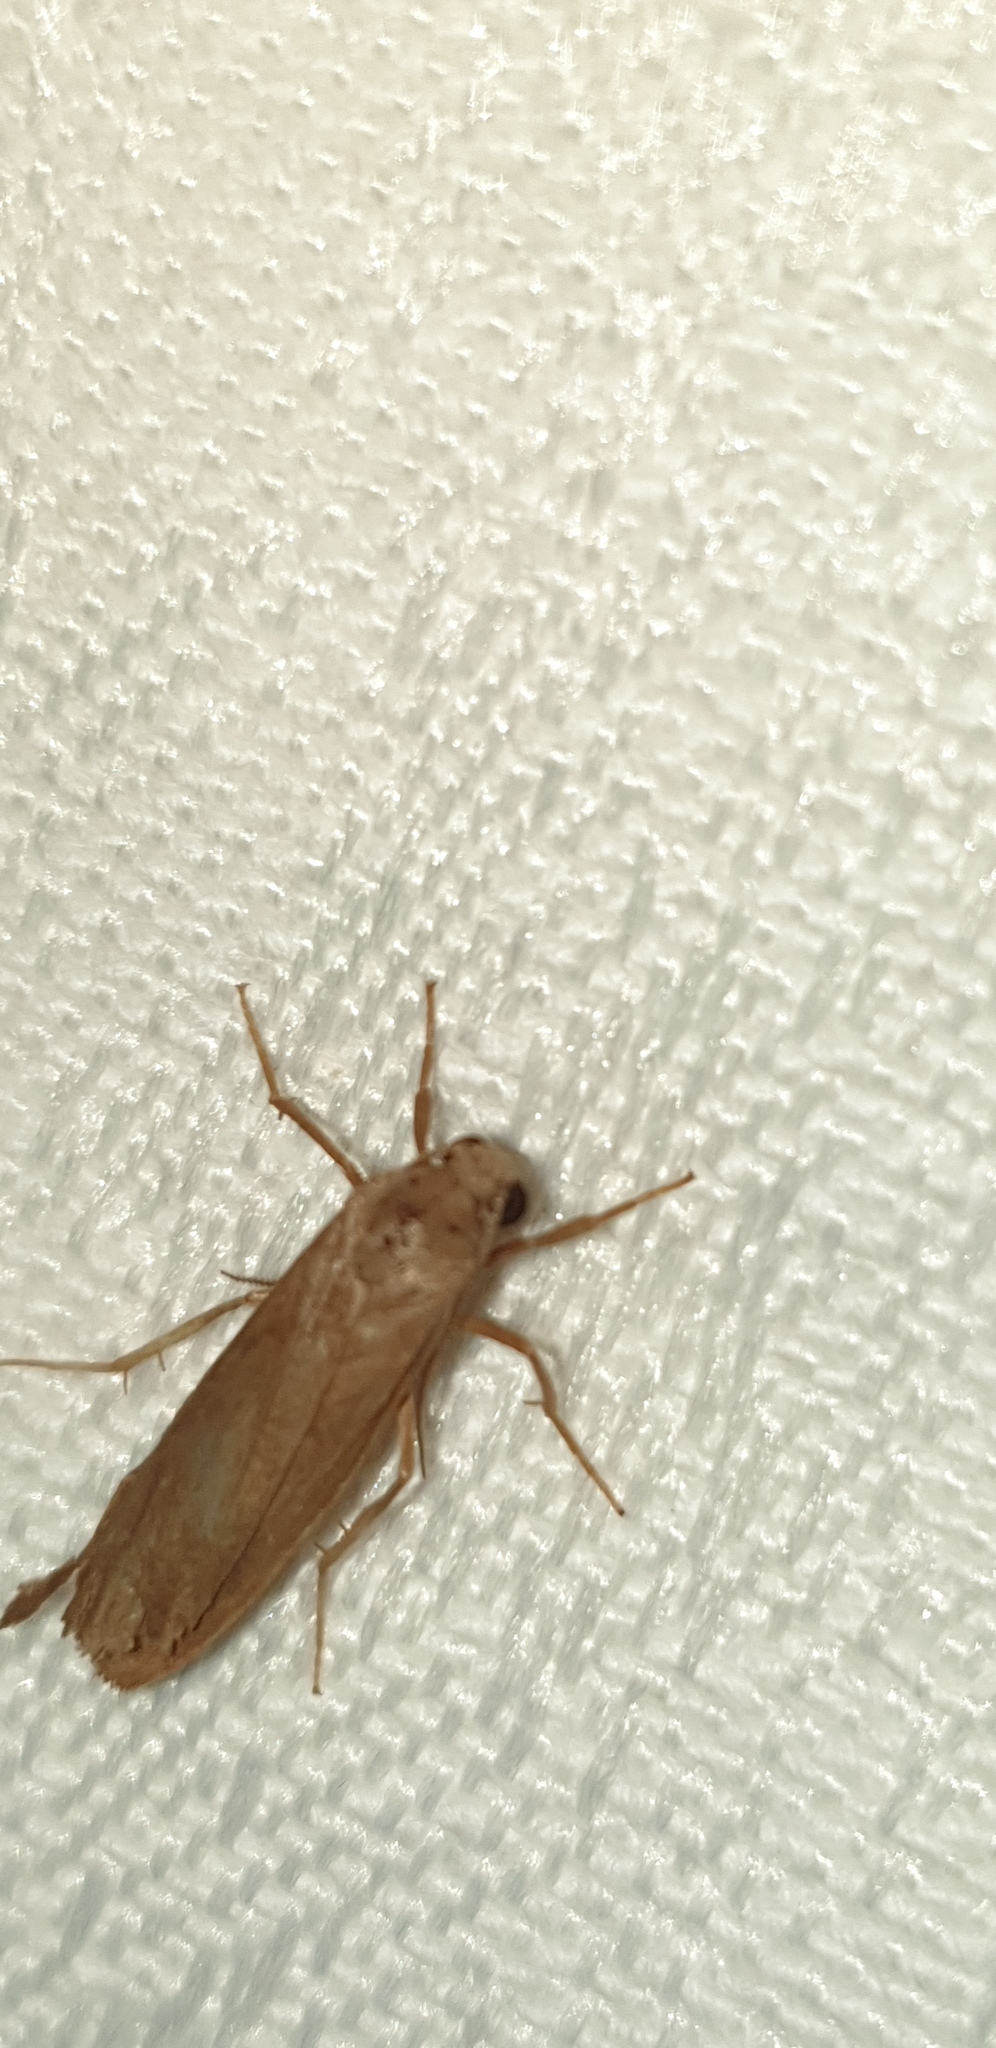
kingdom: Animalia
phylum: Arthropoda
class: Insecta
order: Lepidoptera
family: Erebidae
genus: Eilema
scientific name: Eilema plana
